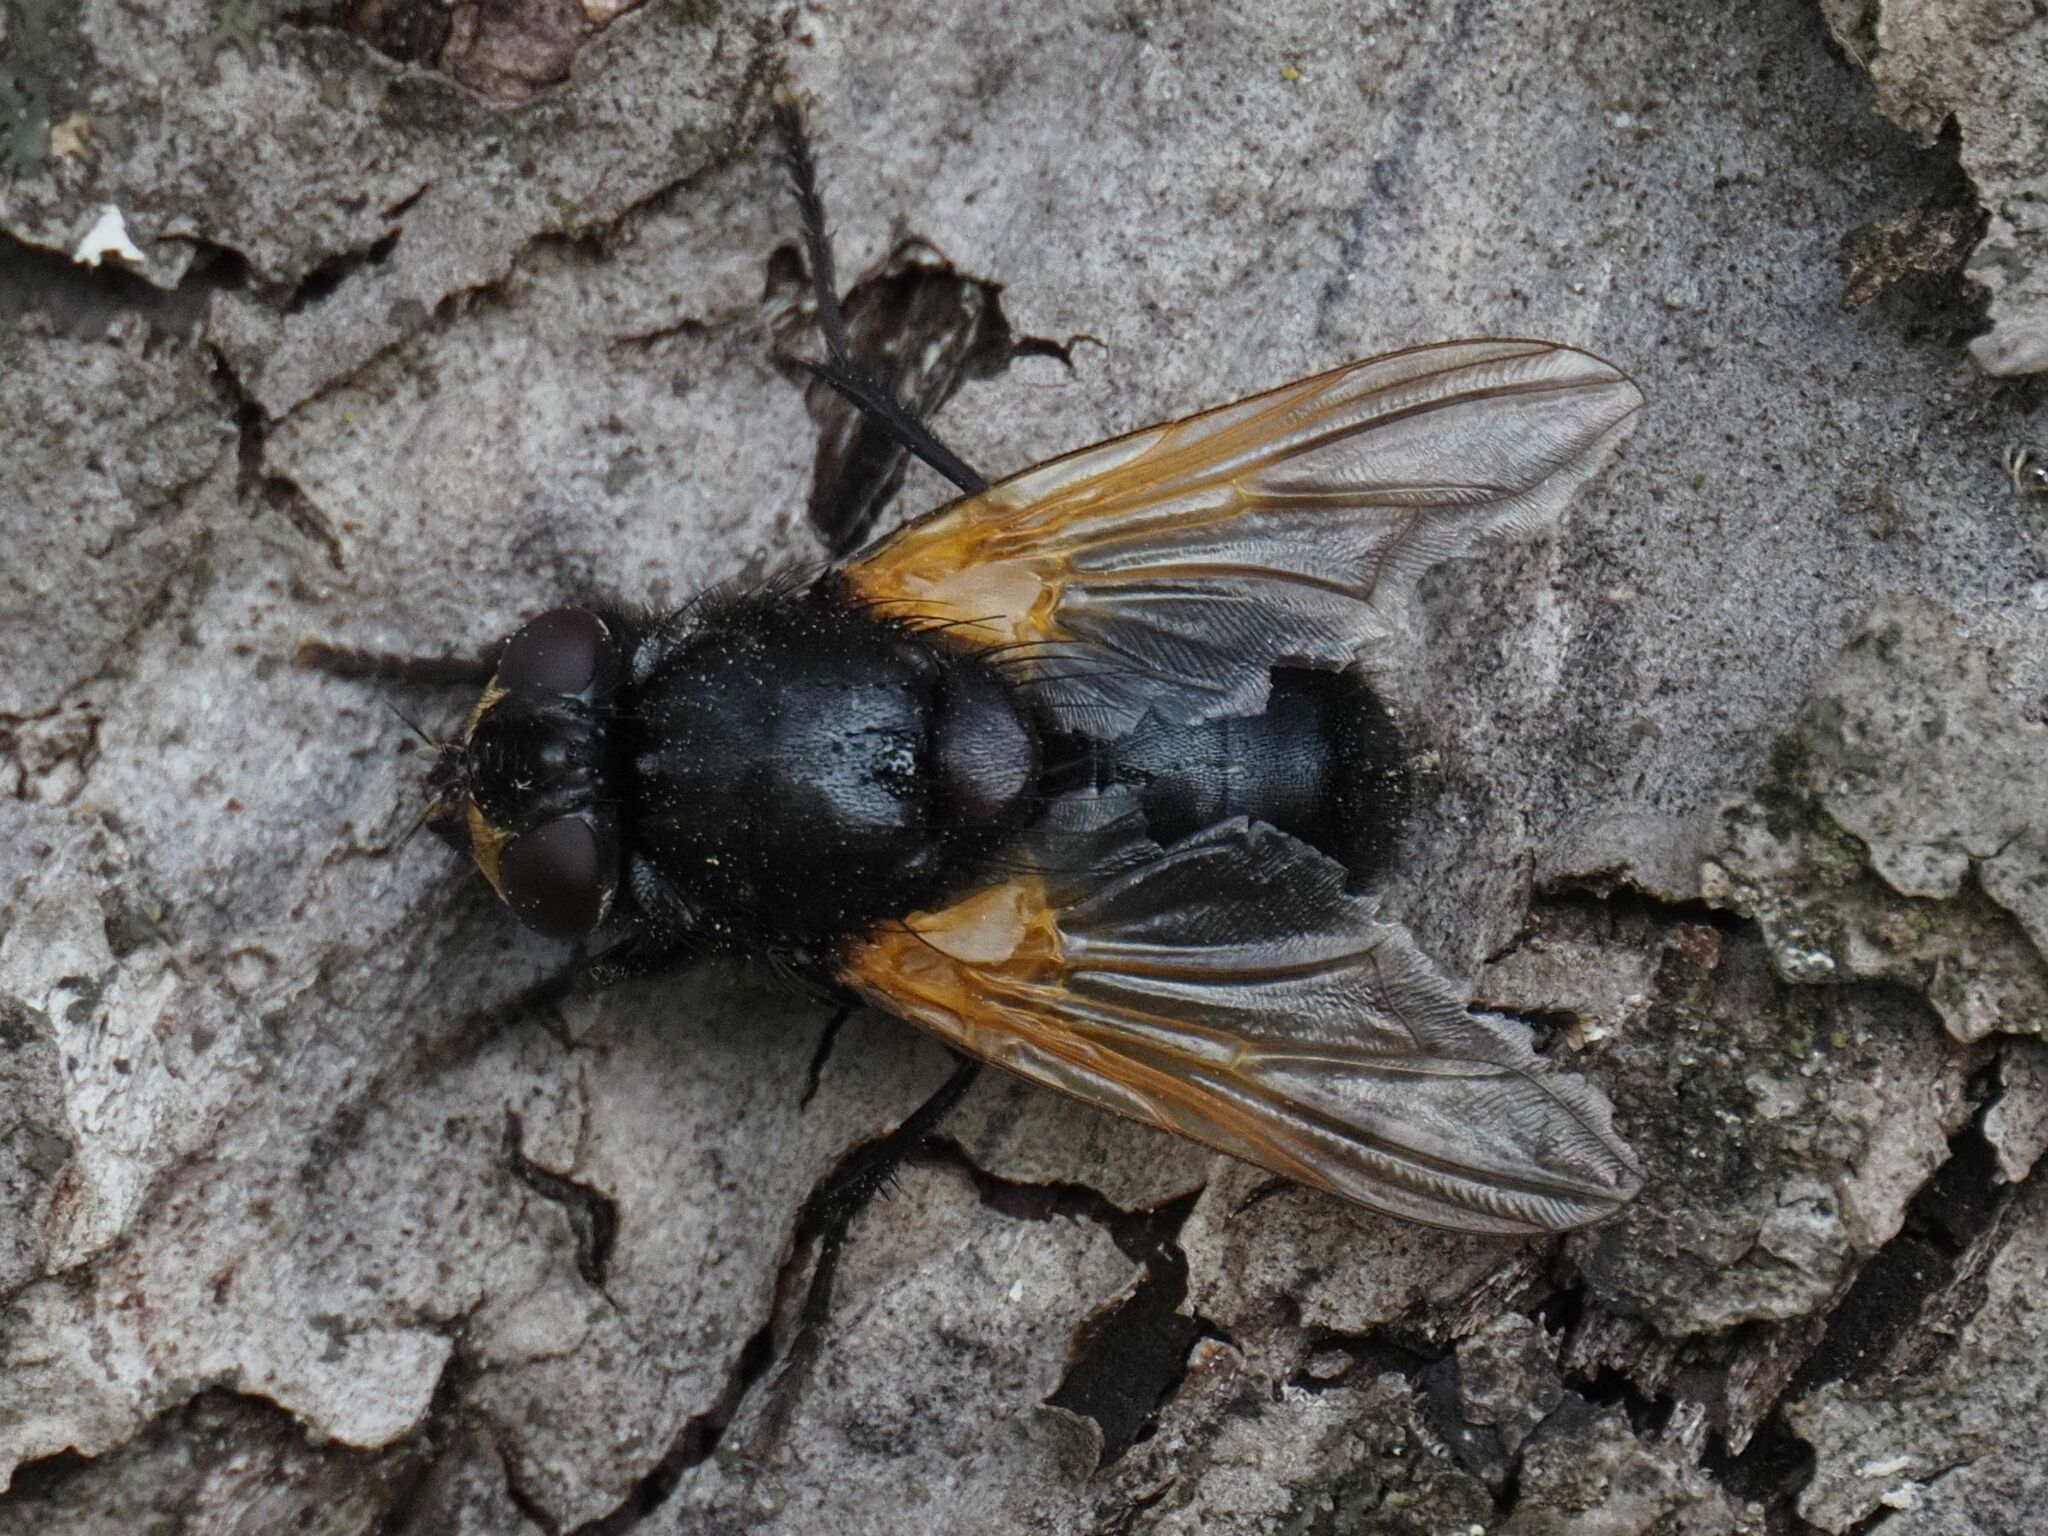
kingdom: Animalia
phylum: Arthropoda
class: Insecta
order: Diptera
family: Muscidae
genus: Mesembrina
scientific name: Mesembrina meridiana
